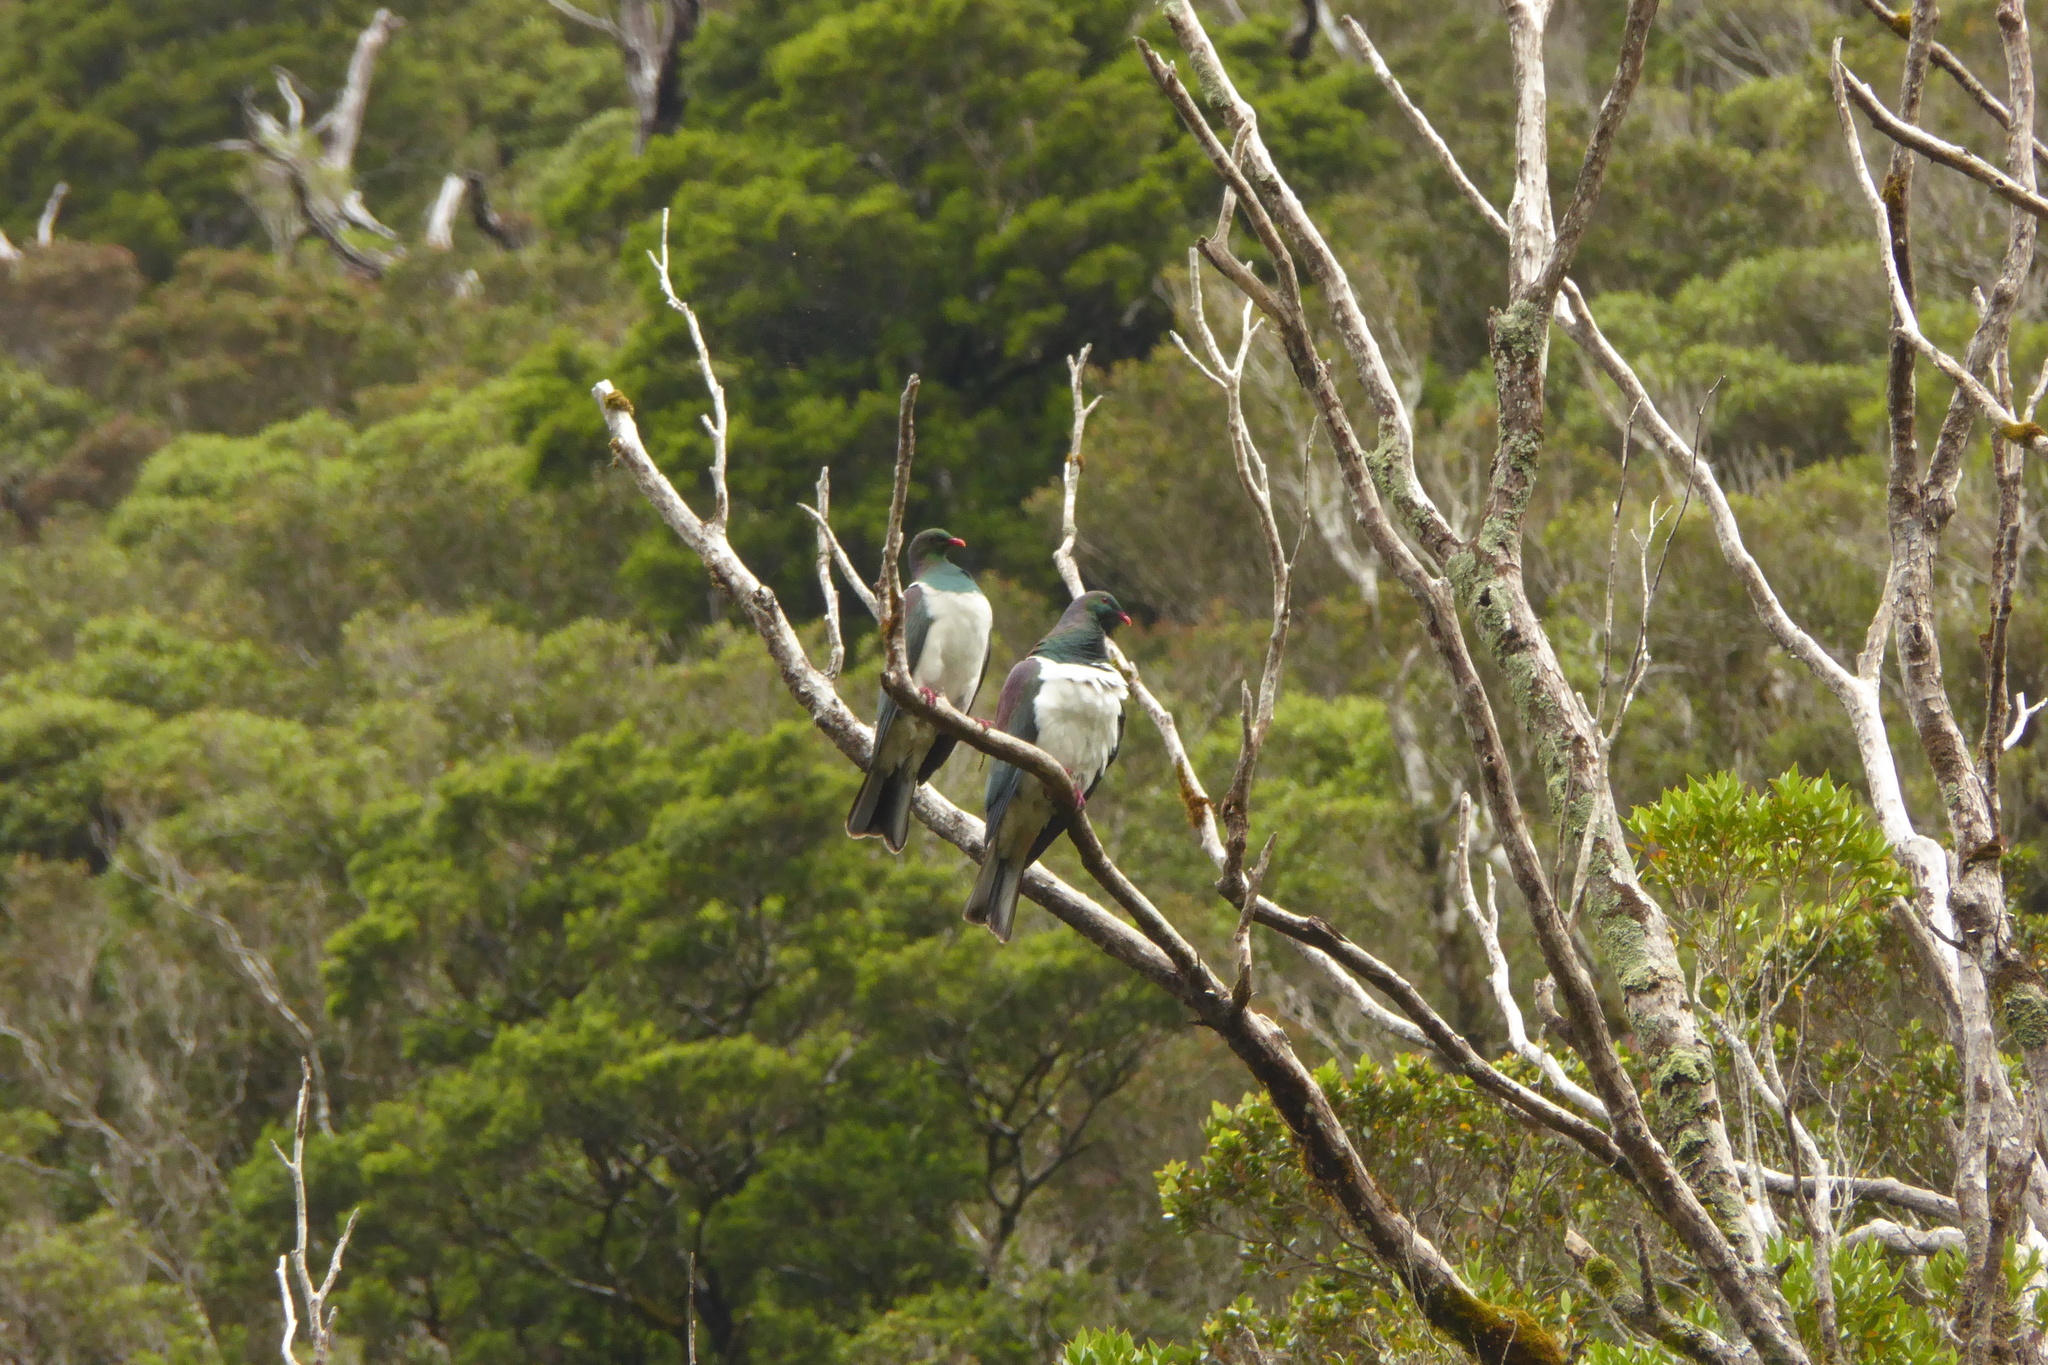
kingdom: Animalia
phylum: Chordata
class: Aves
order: Columbiformes
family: Columbidae
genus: Hemiphaga
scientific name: Hemiphaga novaeseelandiae
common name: New zealand pigeon
